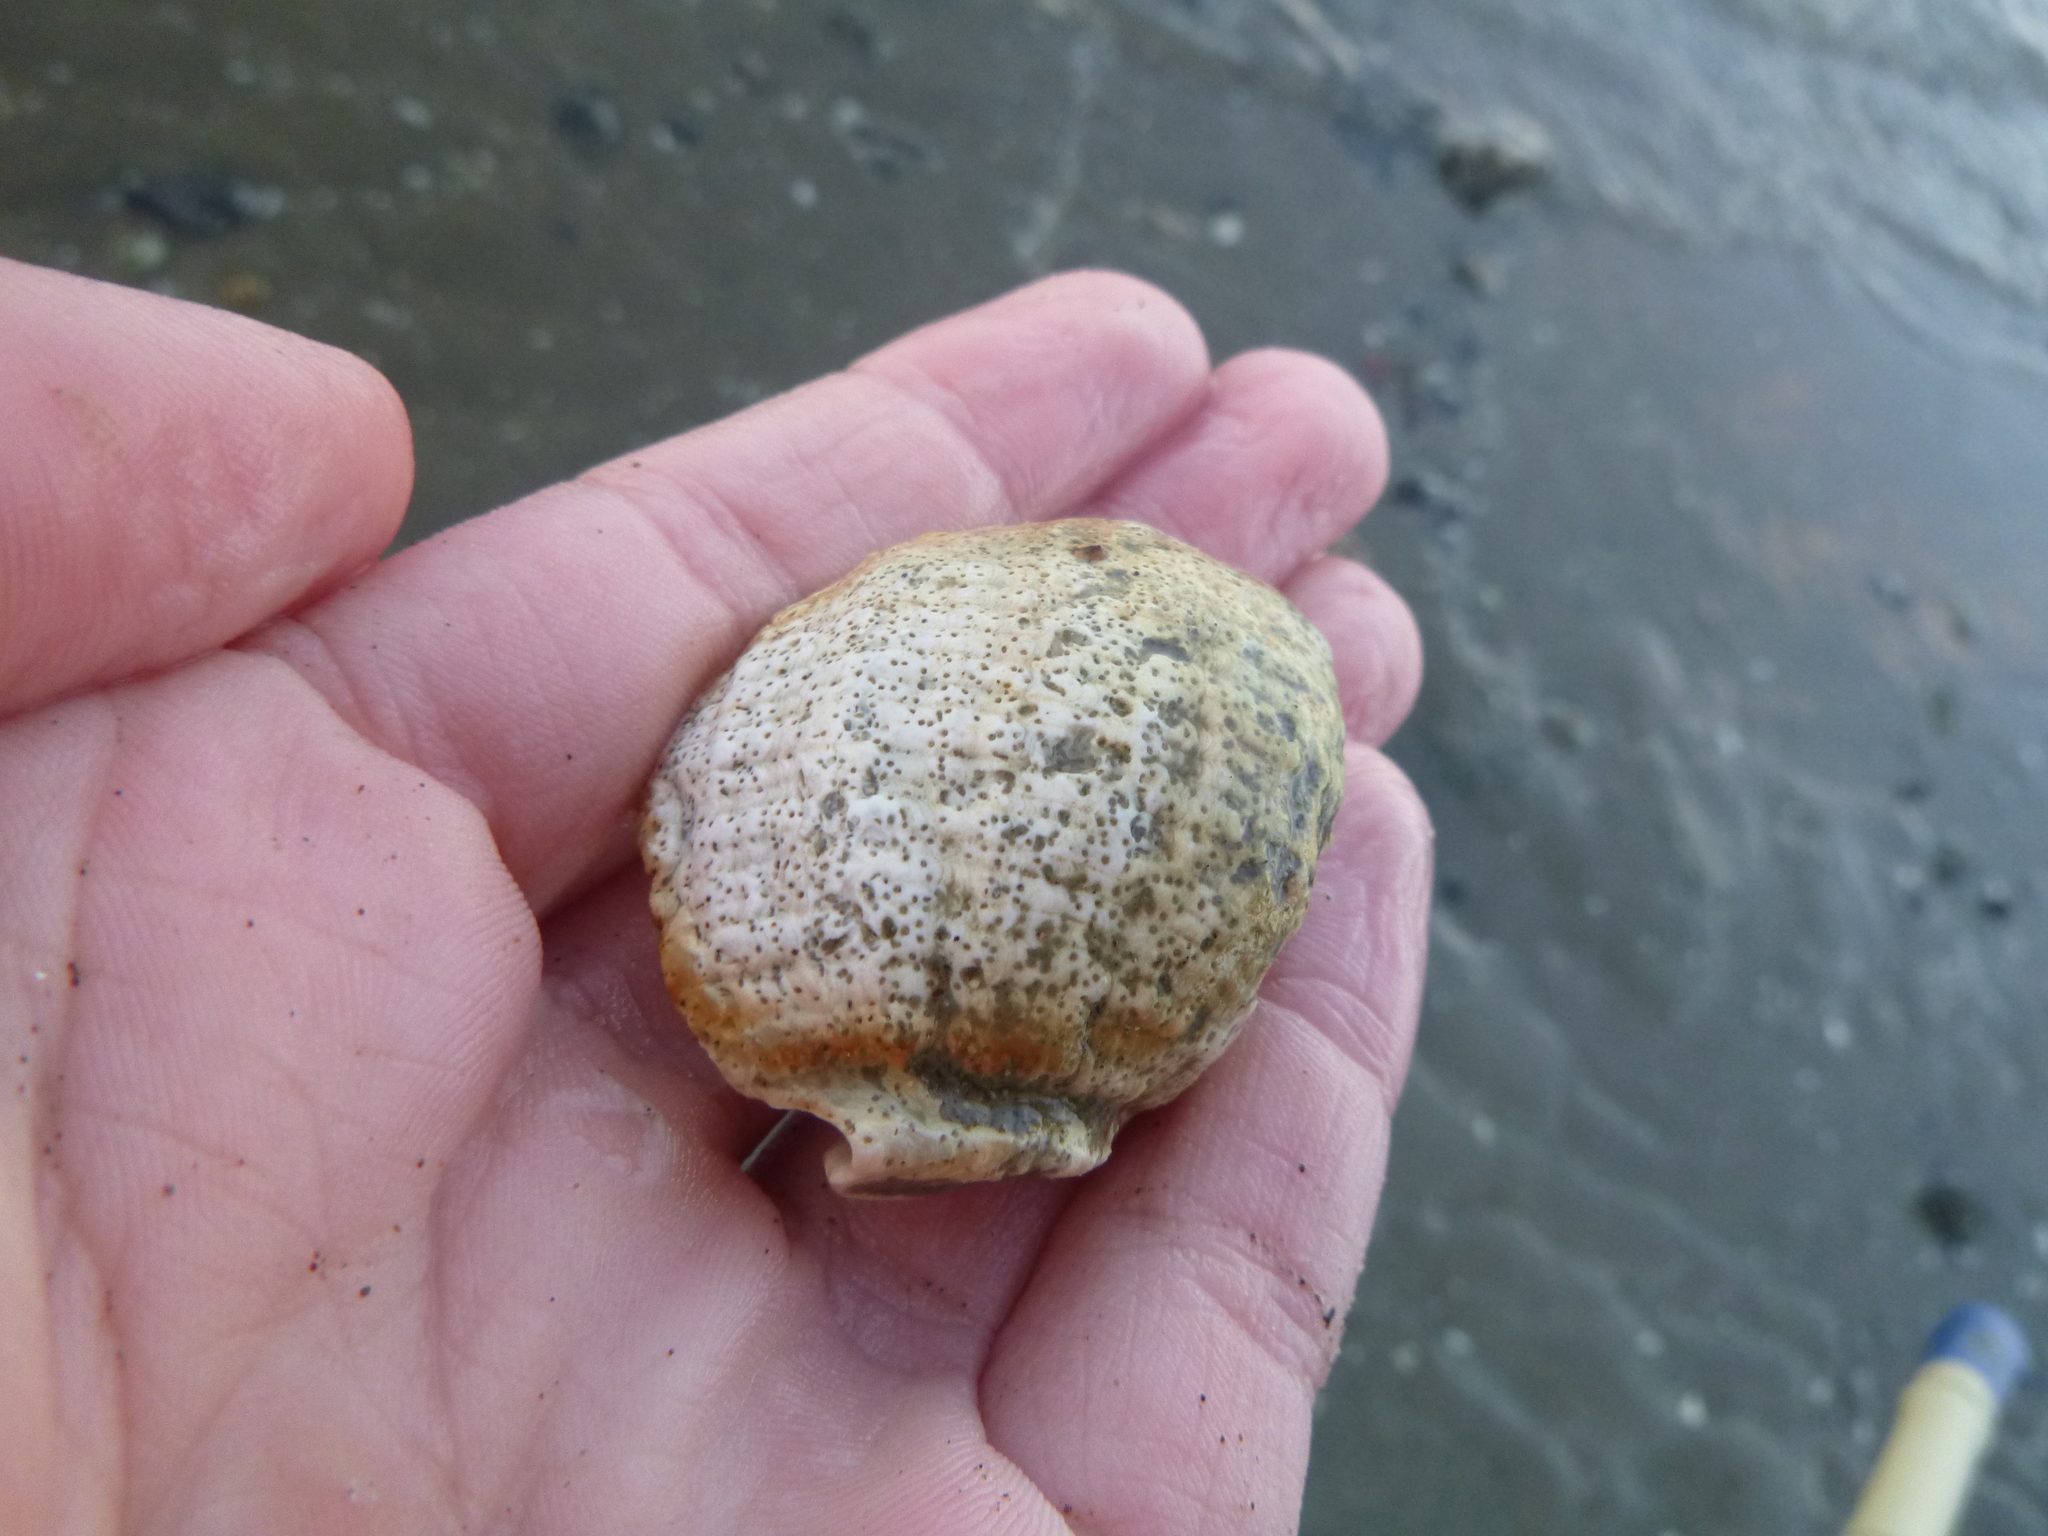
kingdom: Animalia
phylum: Mollusca
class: Gastropoda
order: Neogastropoda
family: Muricidae
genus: Dicathais
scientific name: Dicathais orbita
